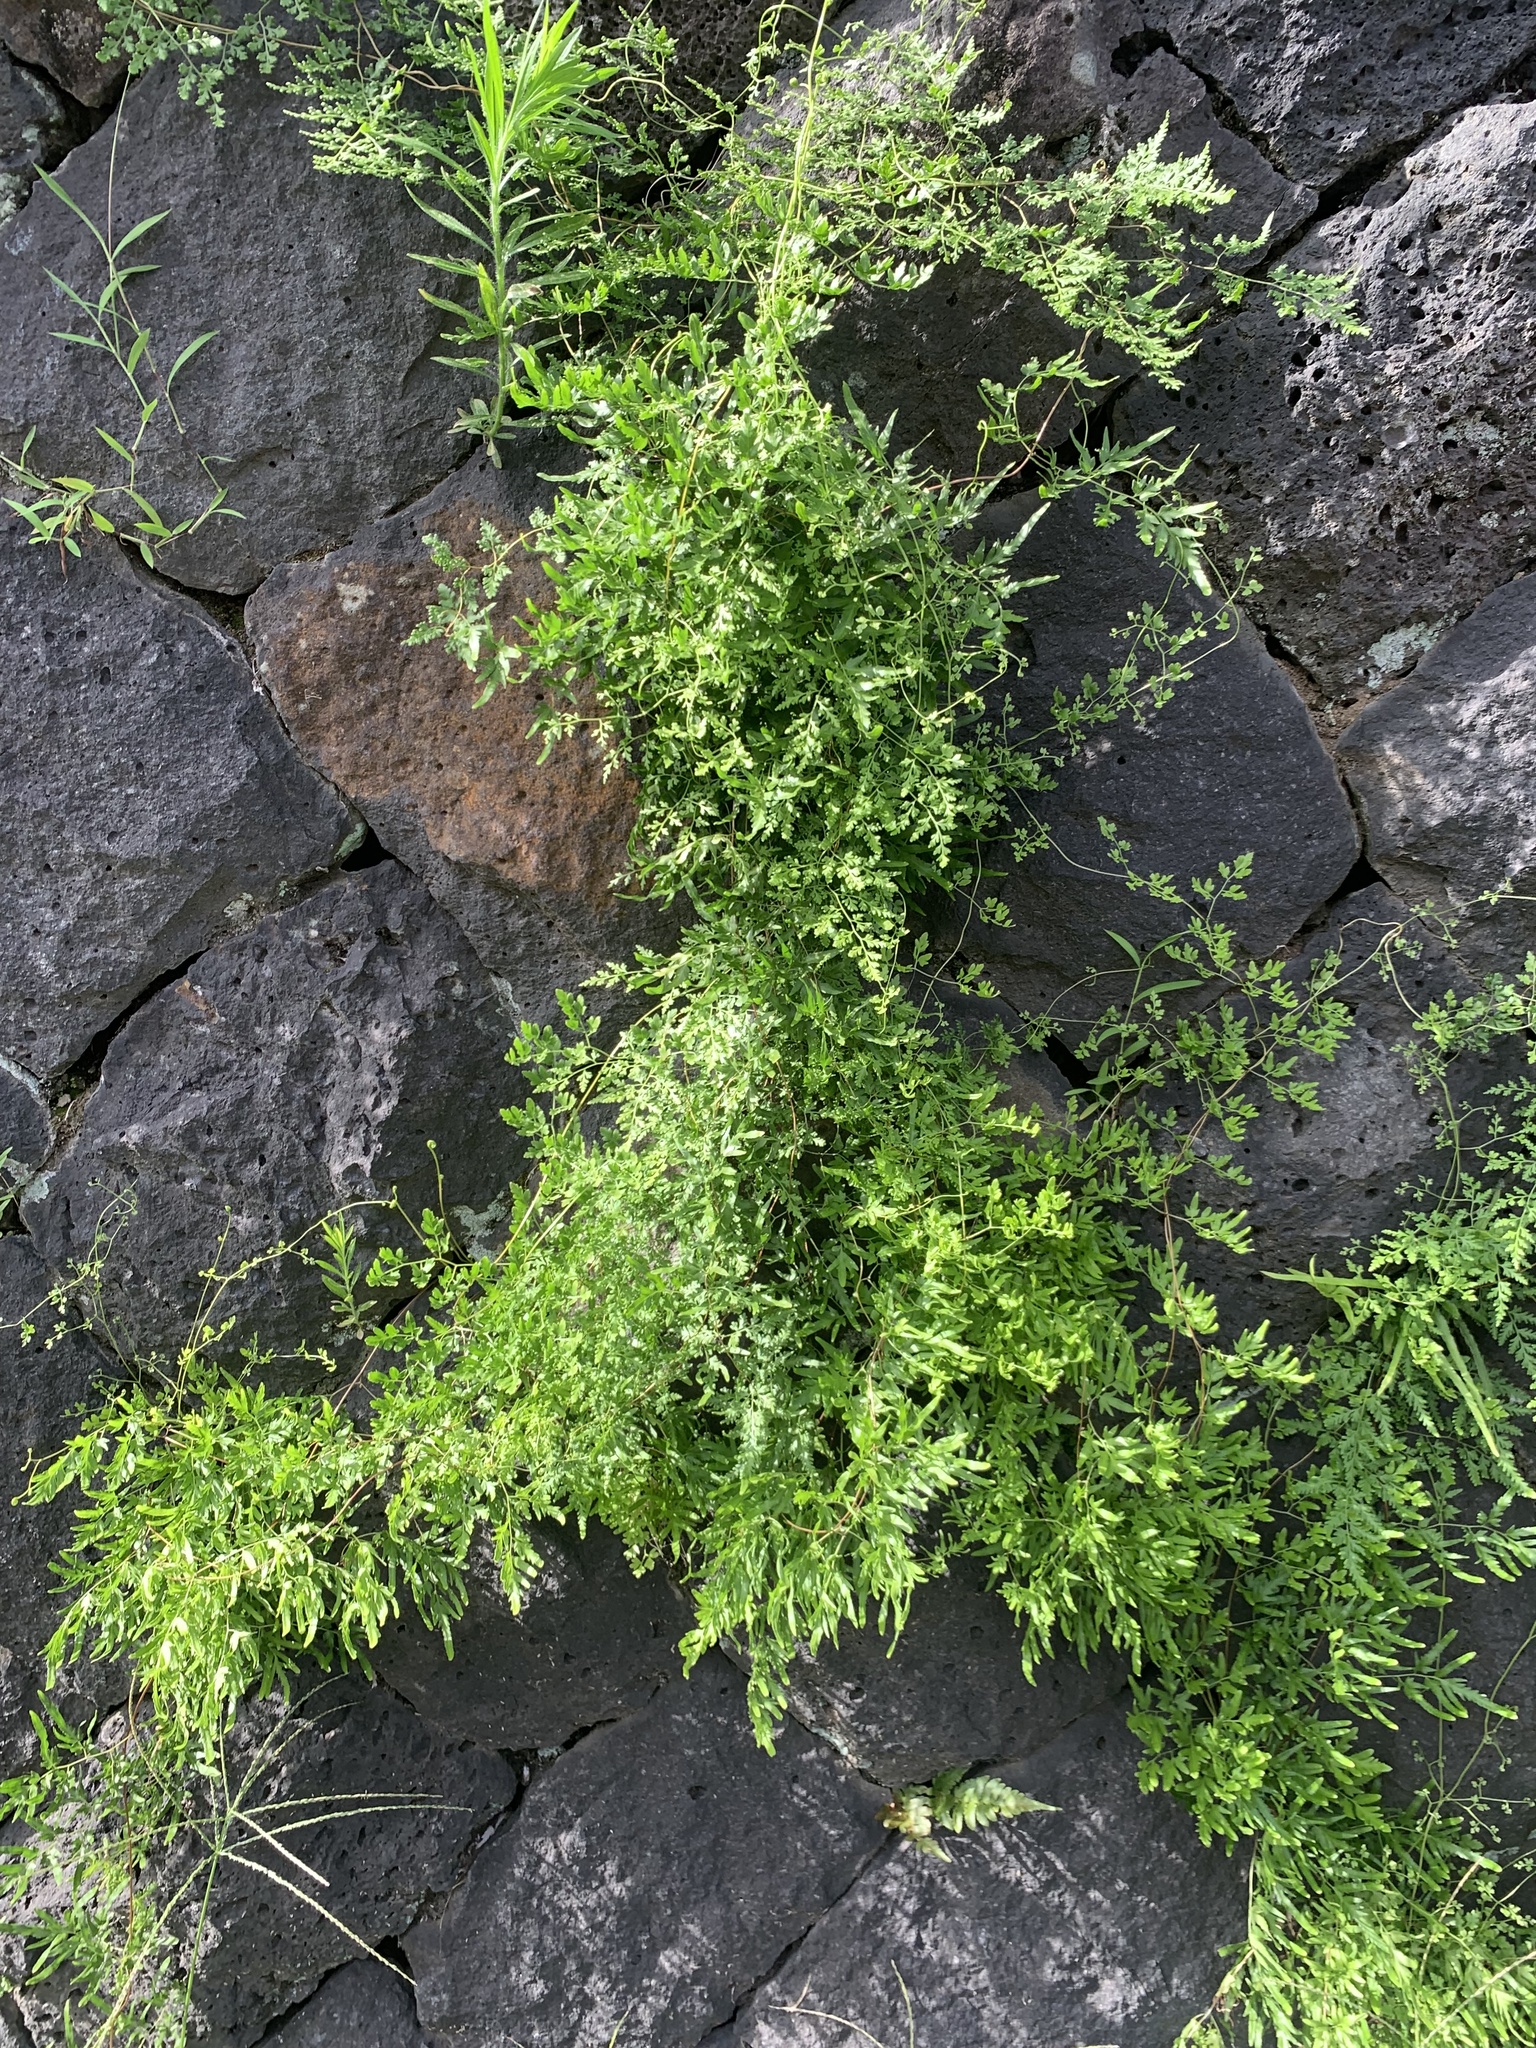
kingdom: Plantae
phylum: Tracheophyta
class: Polypodiopsida
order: Schizaeales
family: Lygodiaceae
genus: Lygodium
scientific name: Lygodium japonicum
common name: Japanese climbing fern
